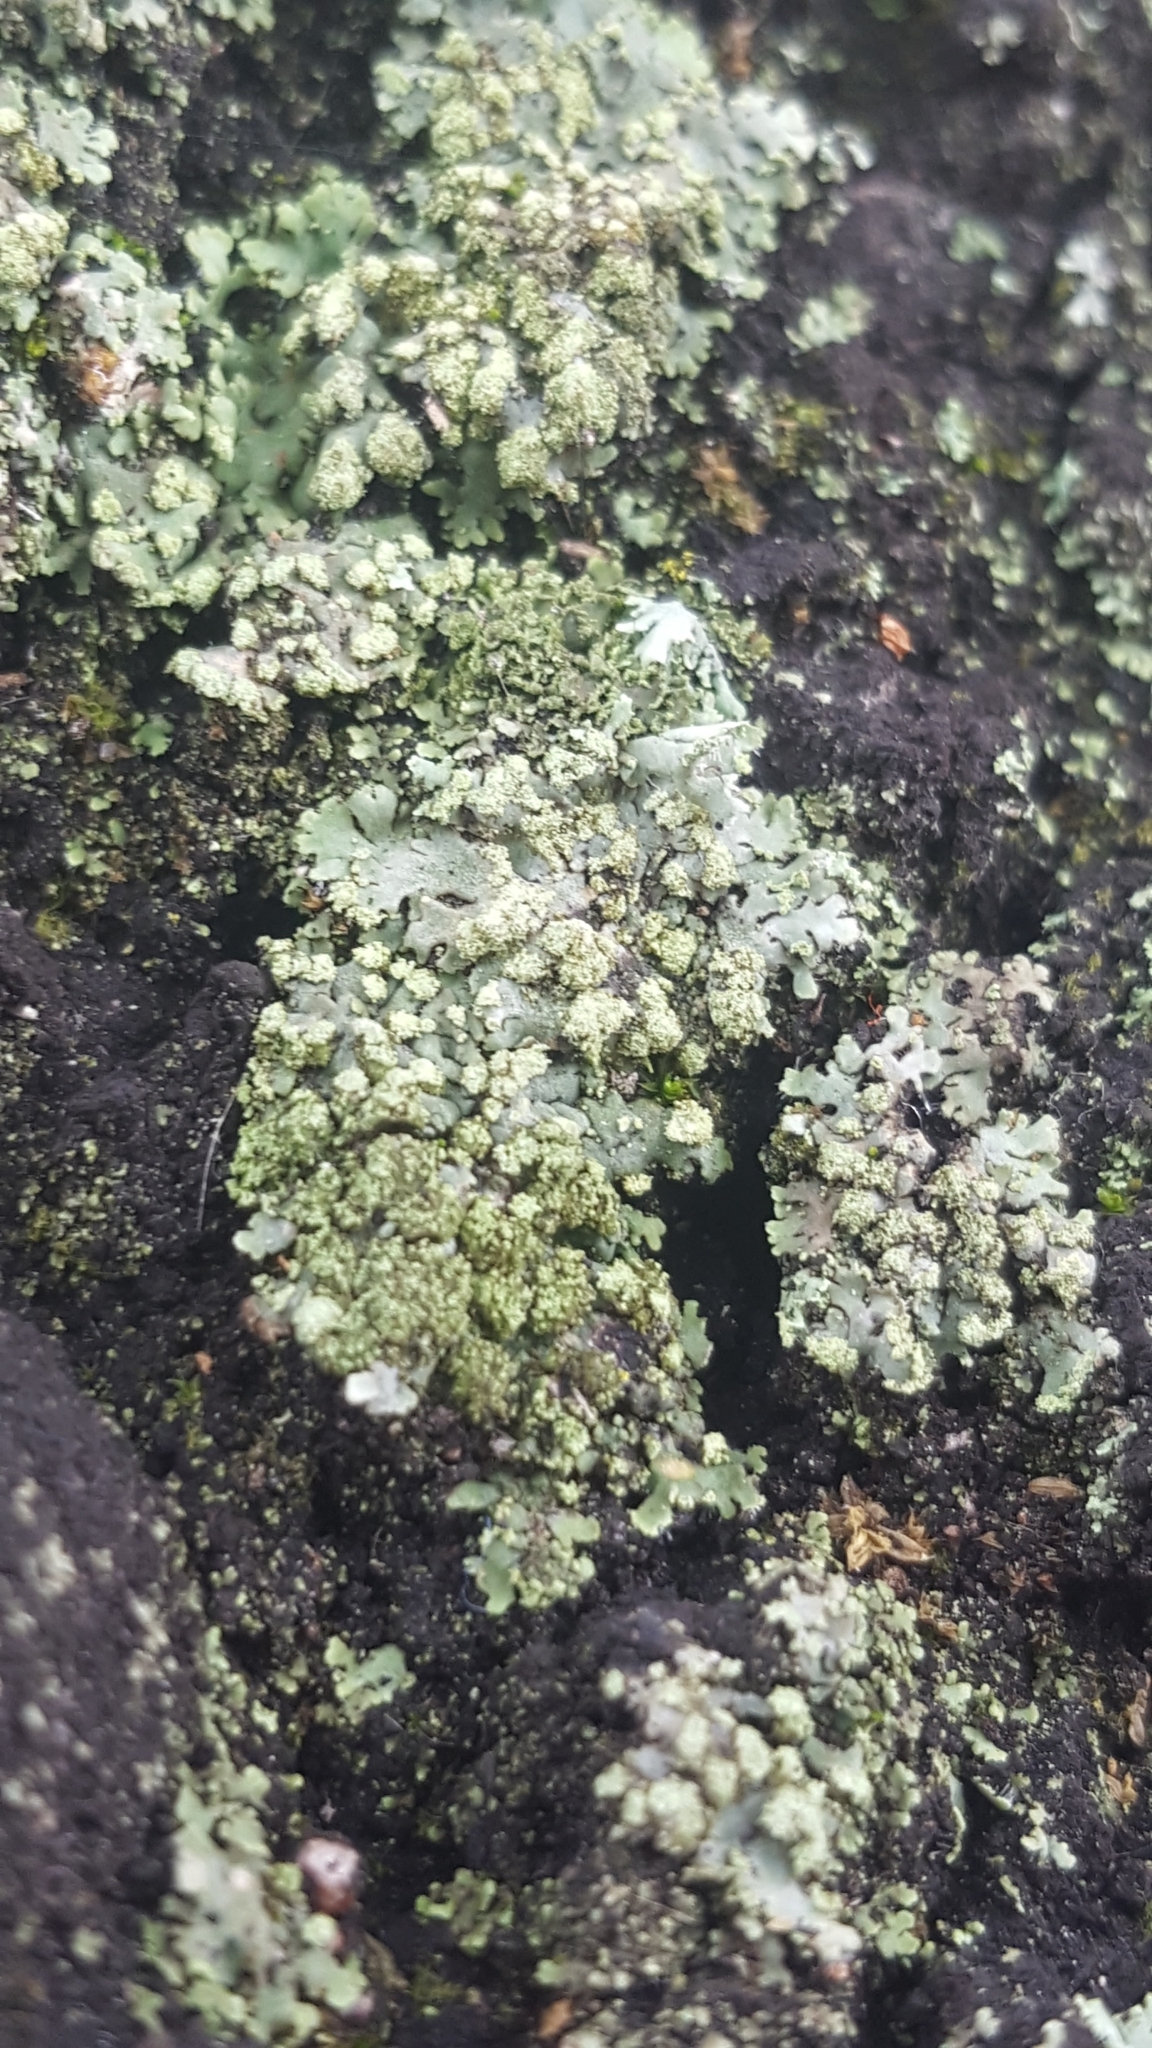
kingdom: Fungi
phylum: Ascomycota
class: Lecanoromycetes
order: Caliciales
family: Physciaceae
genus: Phaeophyscia
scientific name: Phaeophyscia orbicularis
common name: Mealy shadow lichen
